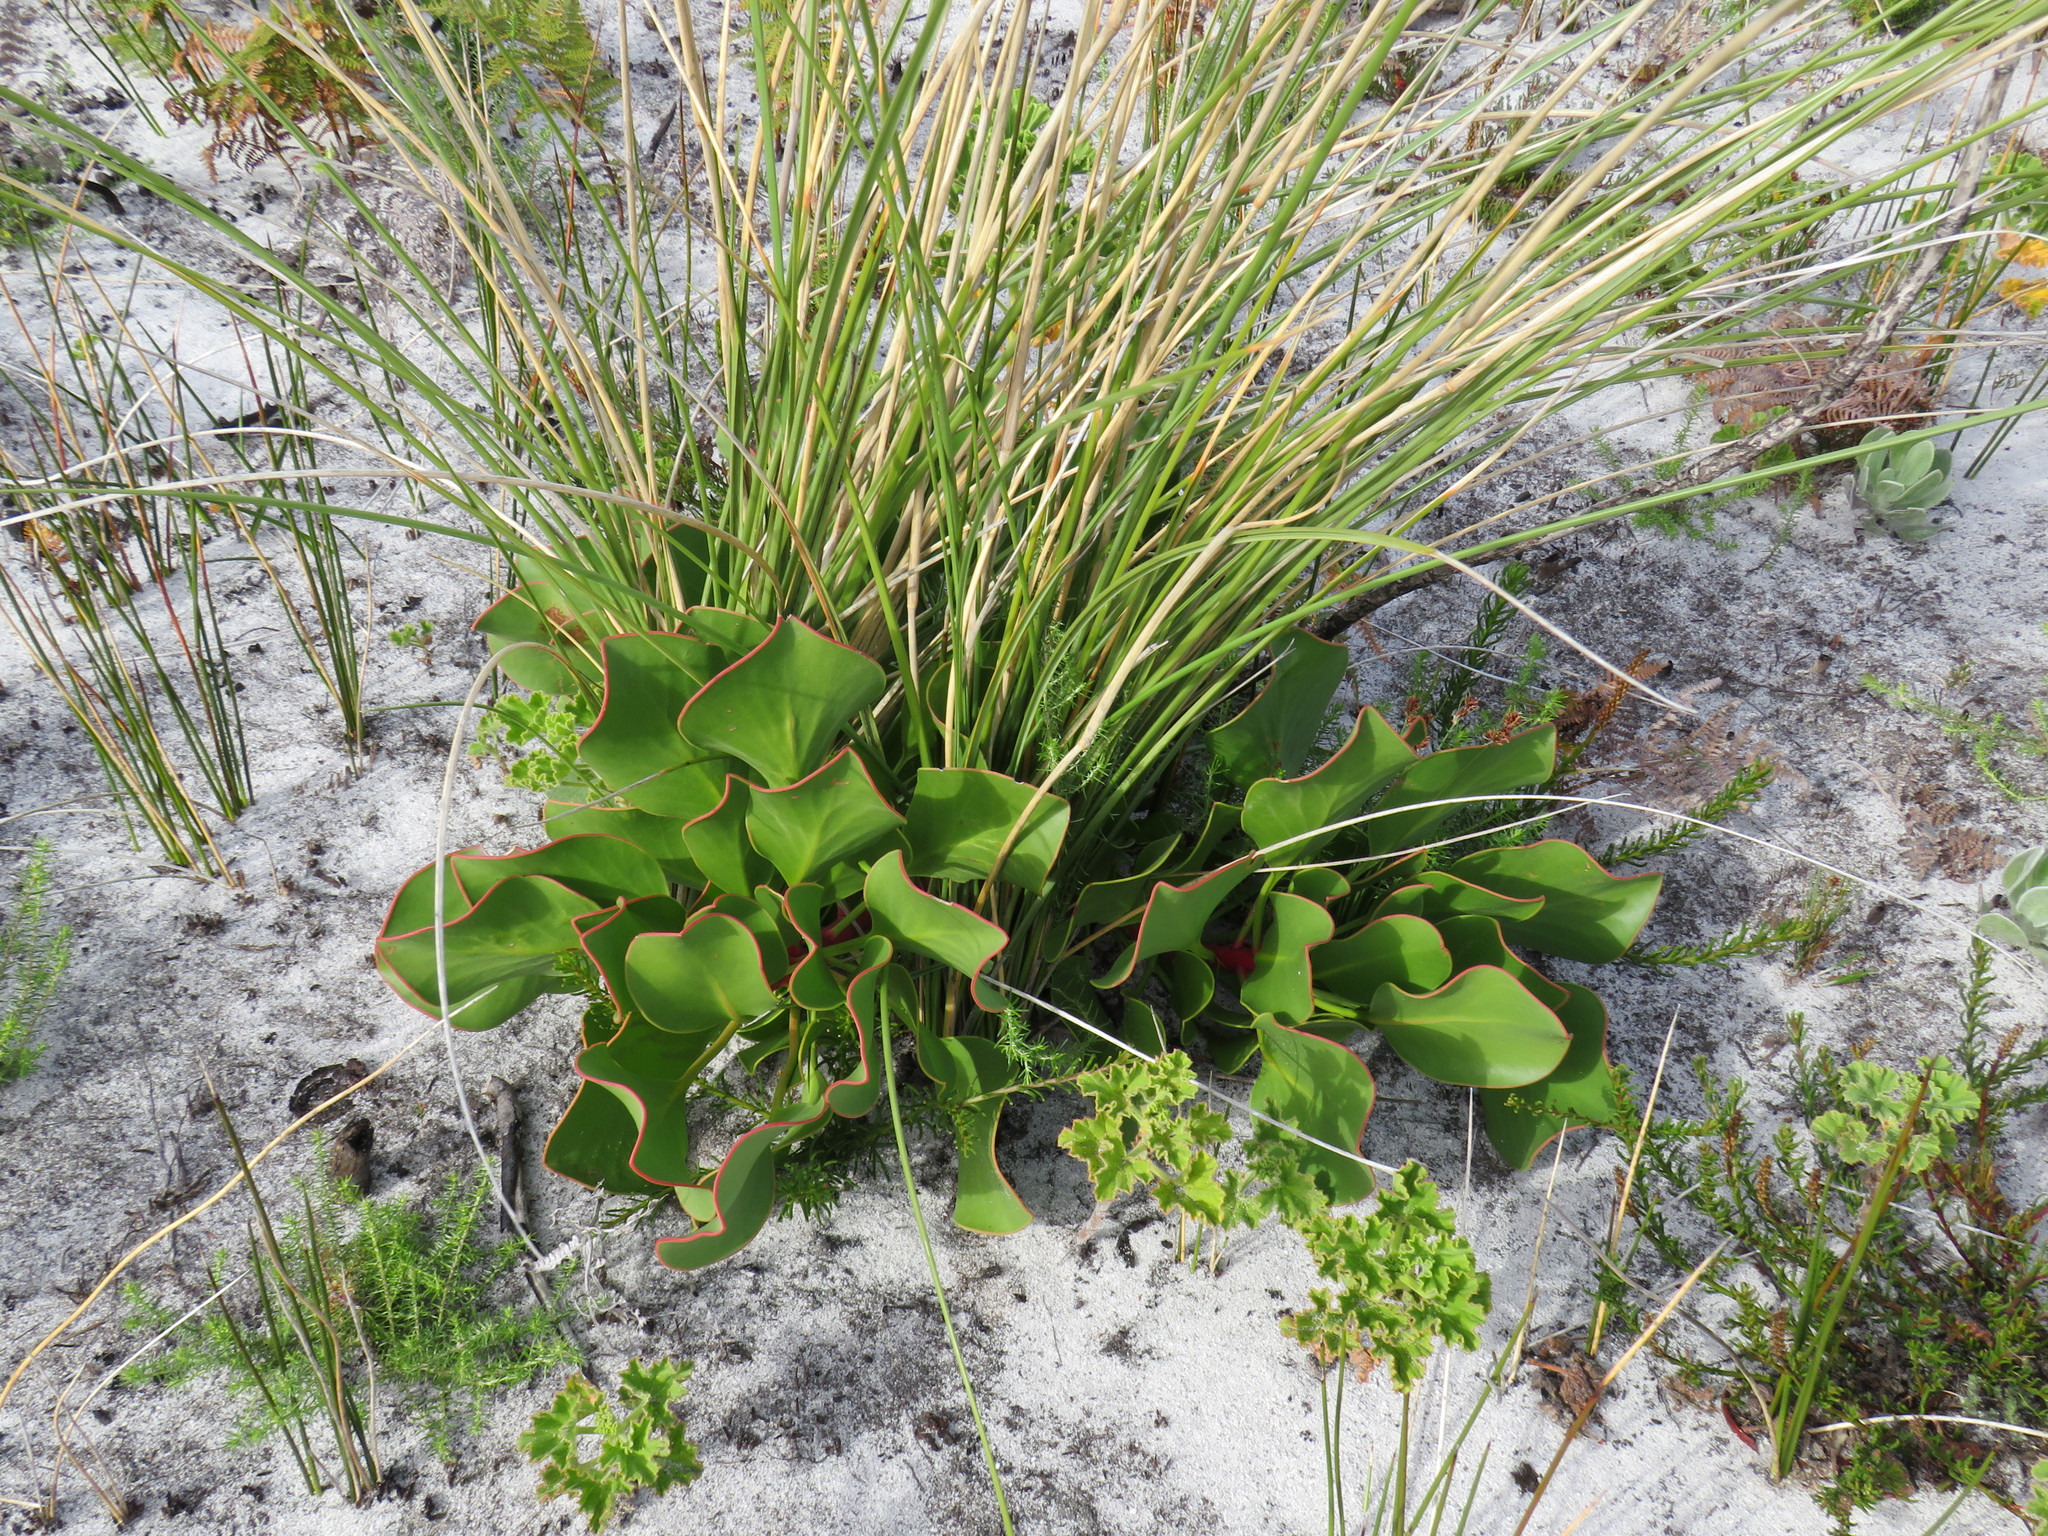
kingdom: Plantae
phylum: Tracheophyta
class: Magnoliopsida
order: Proteales
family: Proteaceae
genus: Protea
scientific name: Protea cynaroides
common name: King protea
